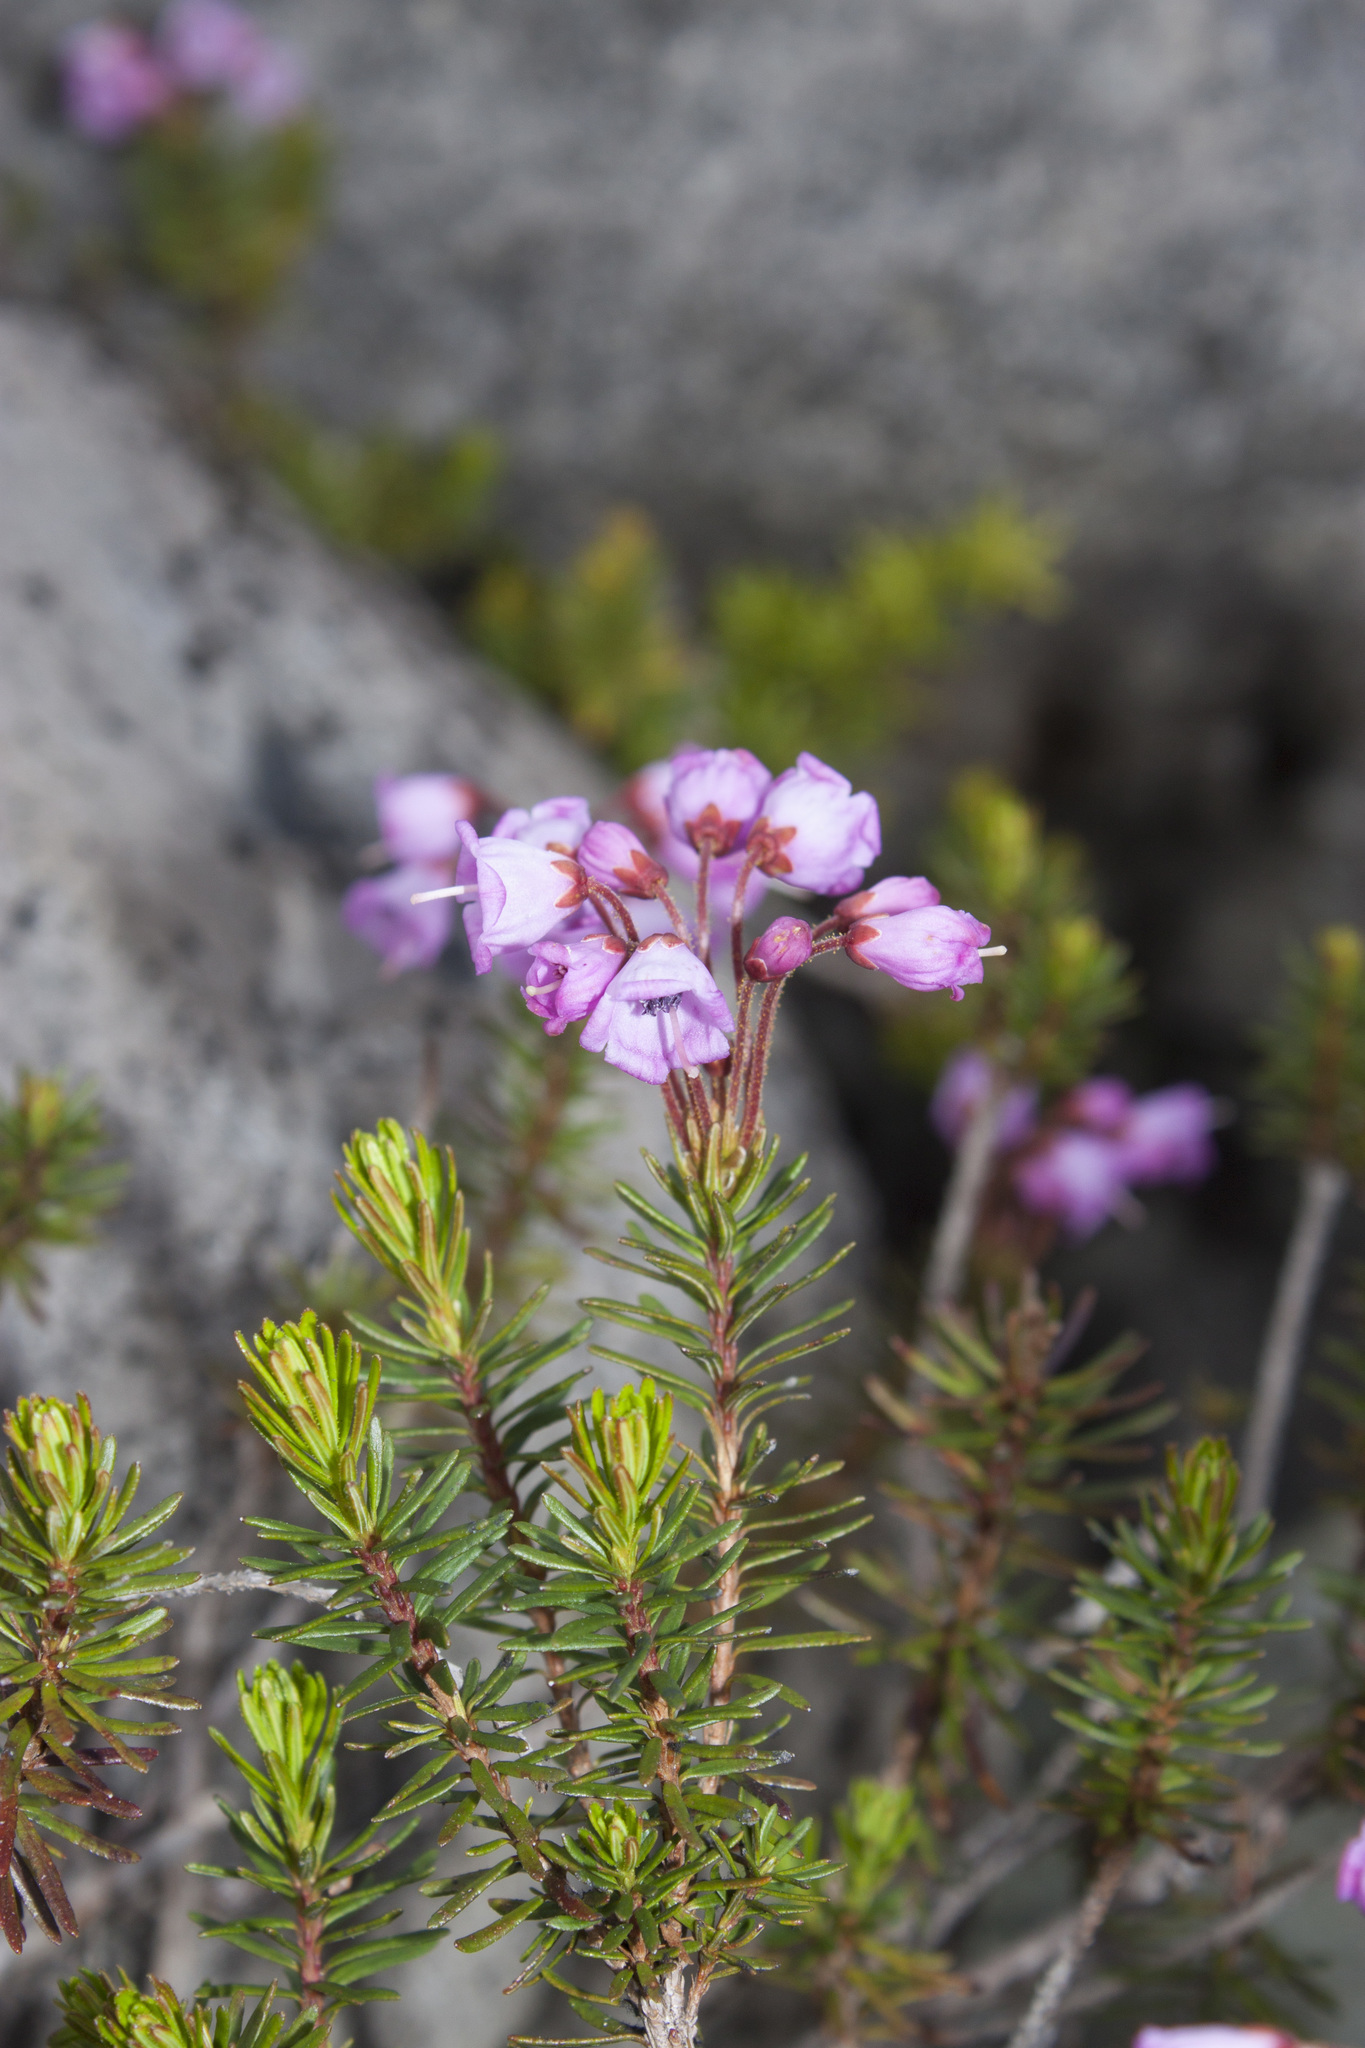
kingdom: Plantae
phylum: Tracheophyta
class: Magnoliopsida
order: Ericales
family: Ericaceae
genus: Phyllodoce
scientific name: Phyllodoce empetriformis
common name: Pink mountain heather
